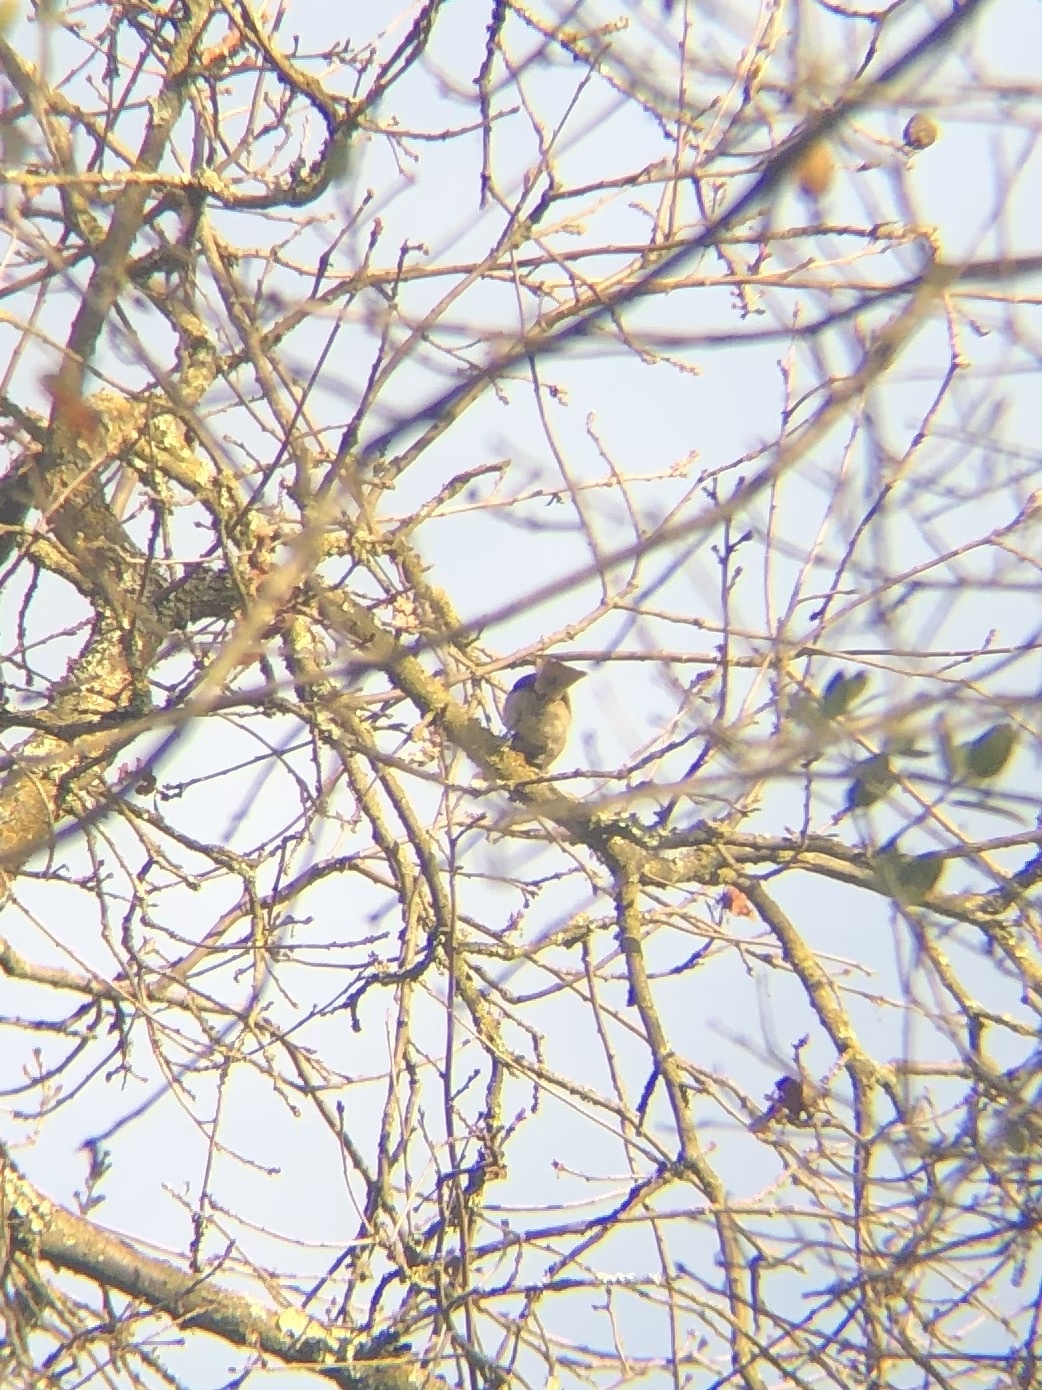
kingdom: Animalia
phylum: Chordata
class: Aves
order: Passeriformes
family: Paridae
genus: Baeolophus
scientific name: Baeolophus inornatus
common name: Oak titmouse
